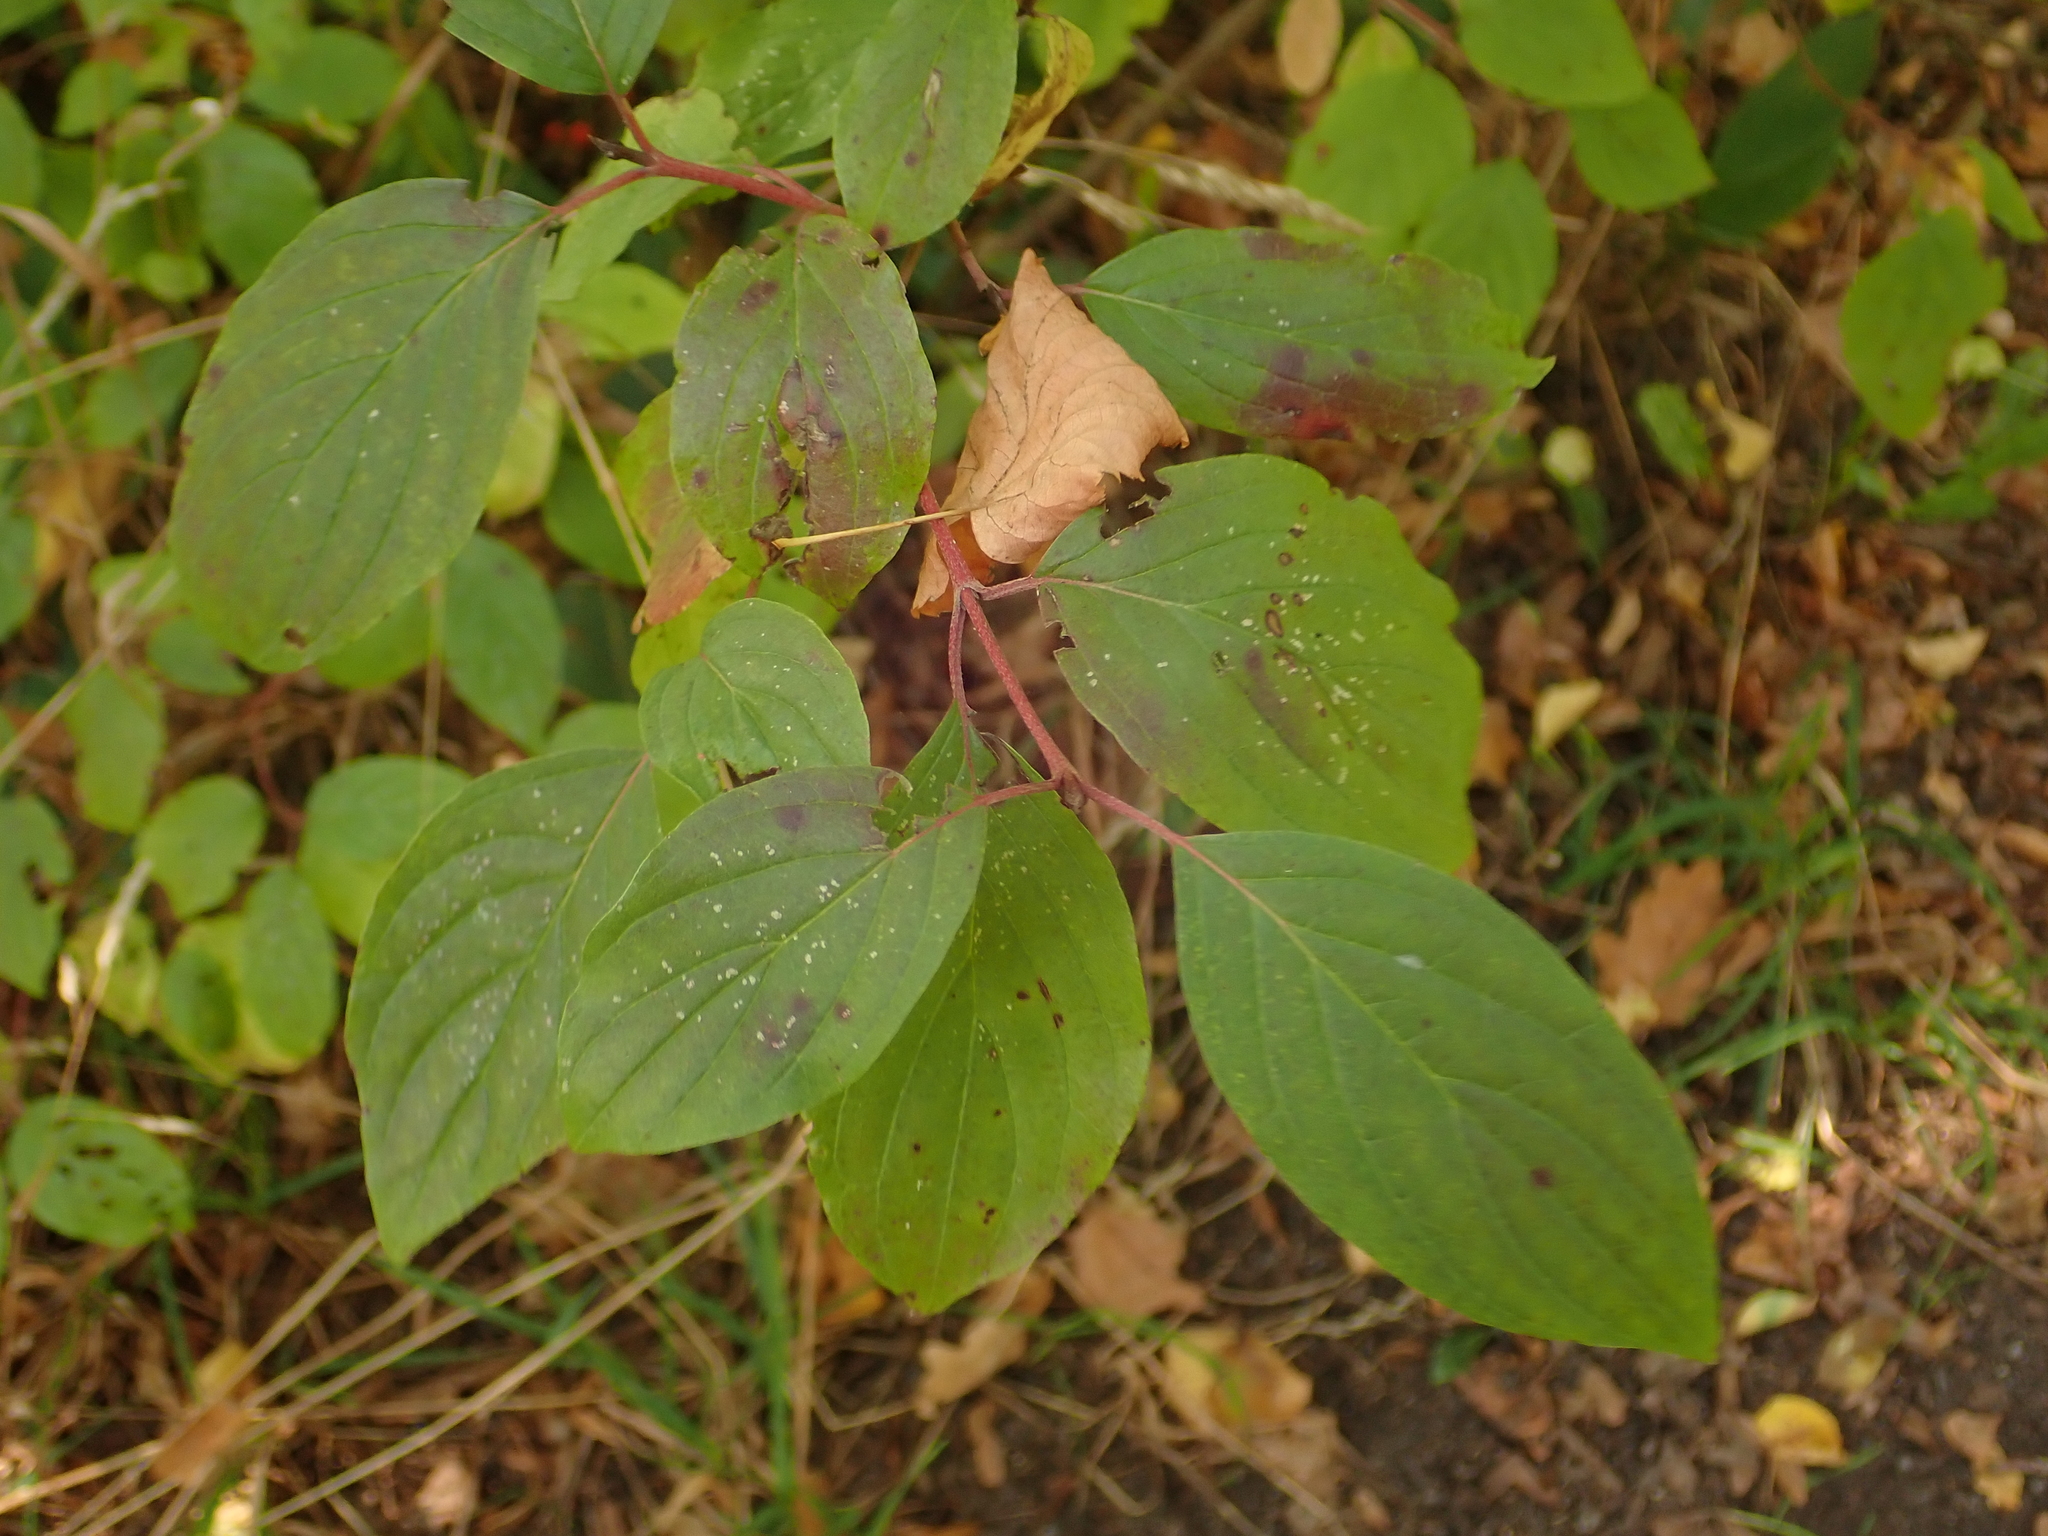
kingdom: Plantae
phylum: Tracheophyta
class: Magnoliopsida
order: Cornales
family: Cornaceae
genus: Cornus
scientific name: Cornus sanguinea
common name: Dogwood
